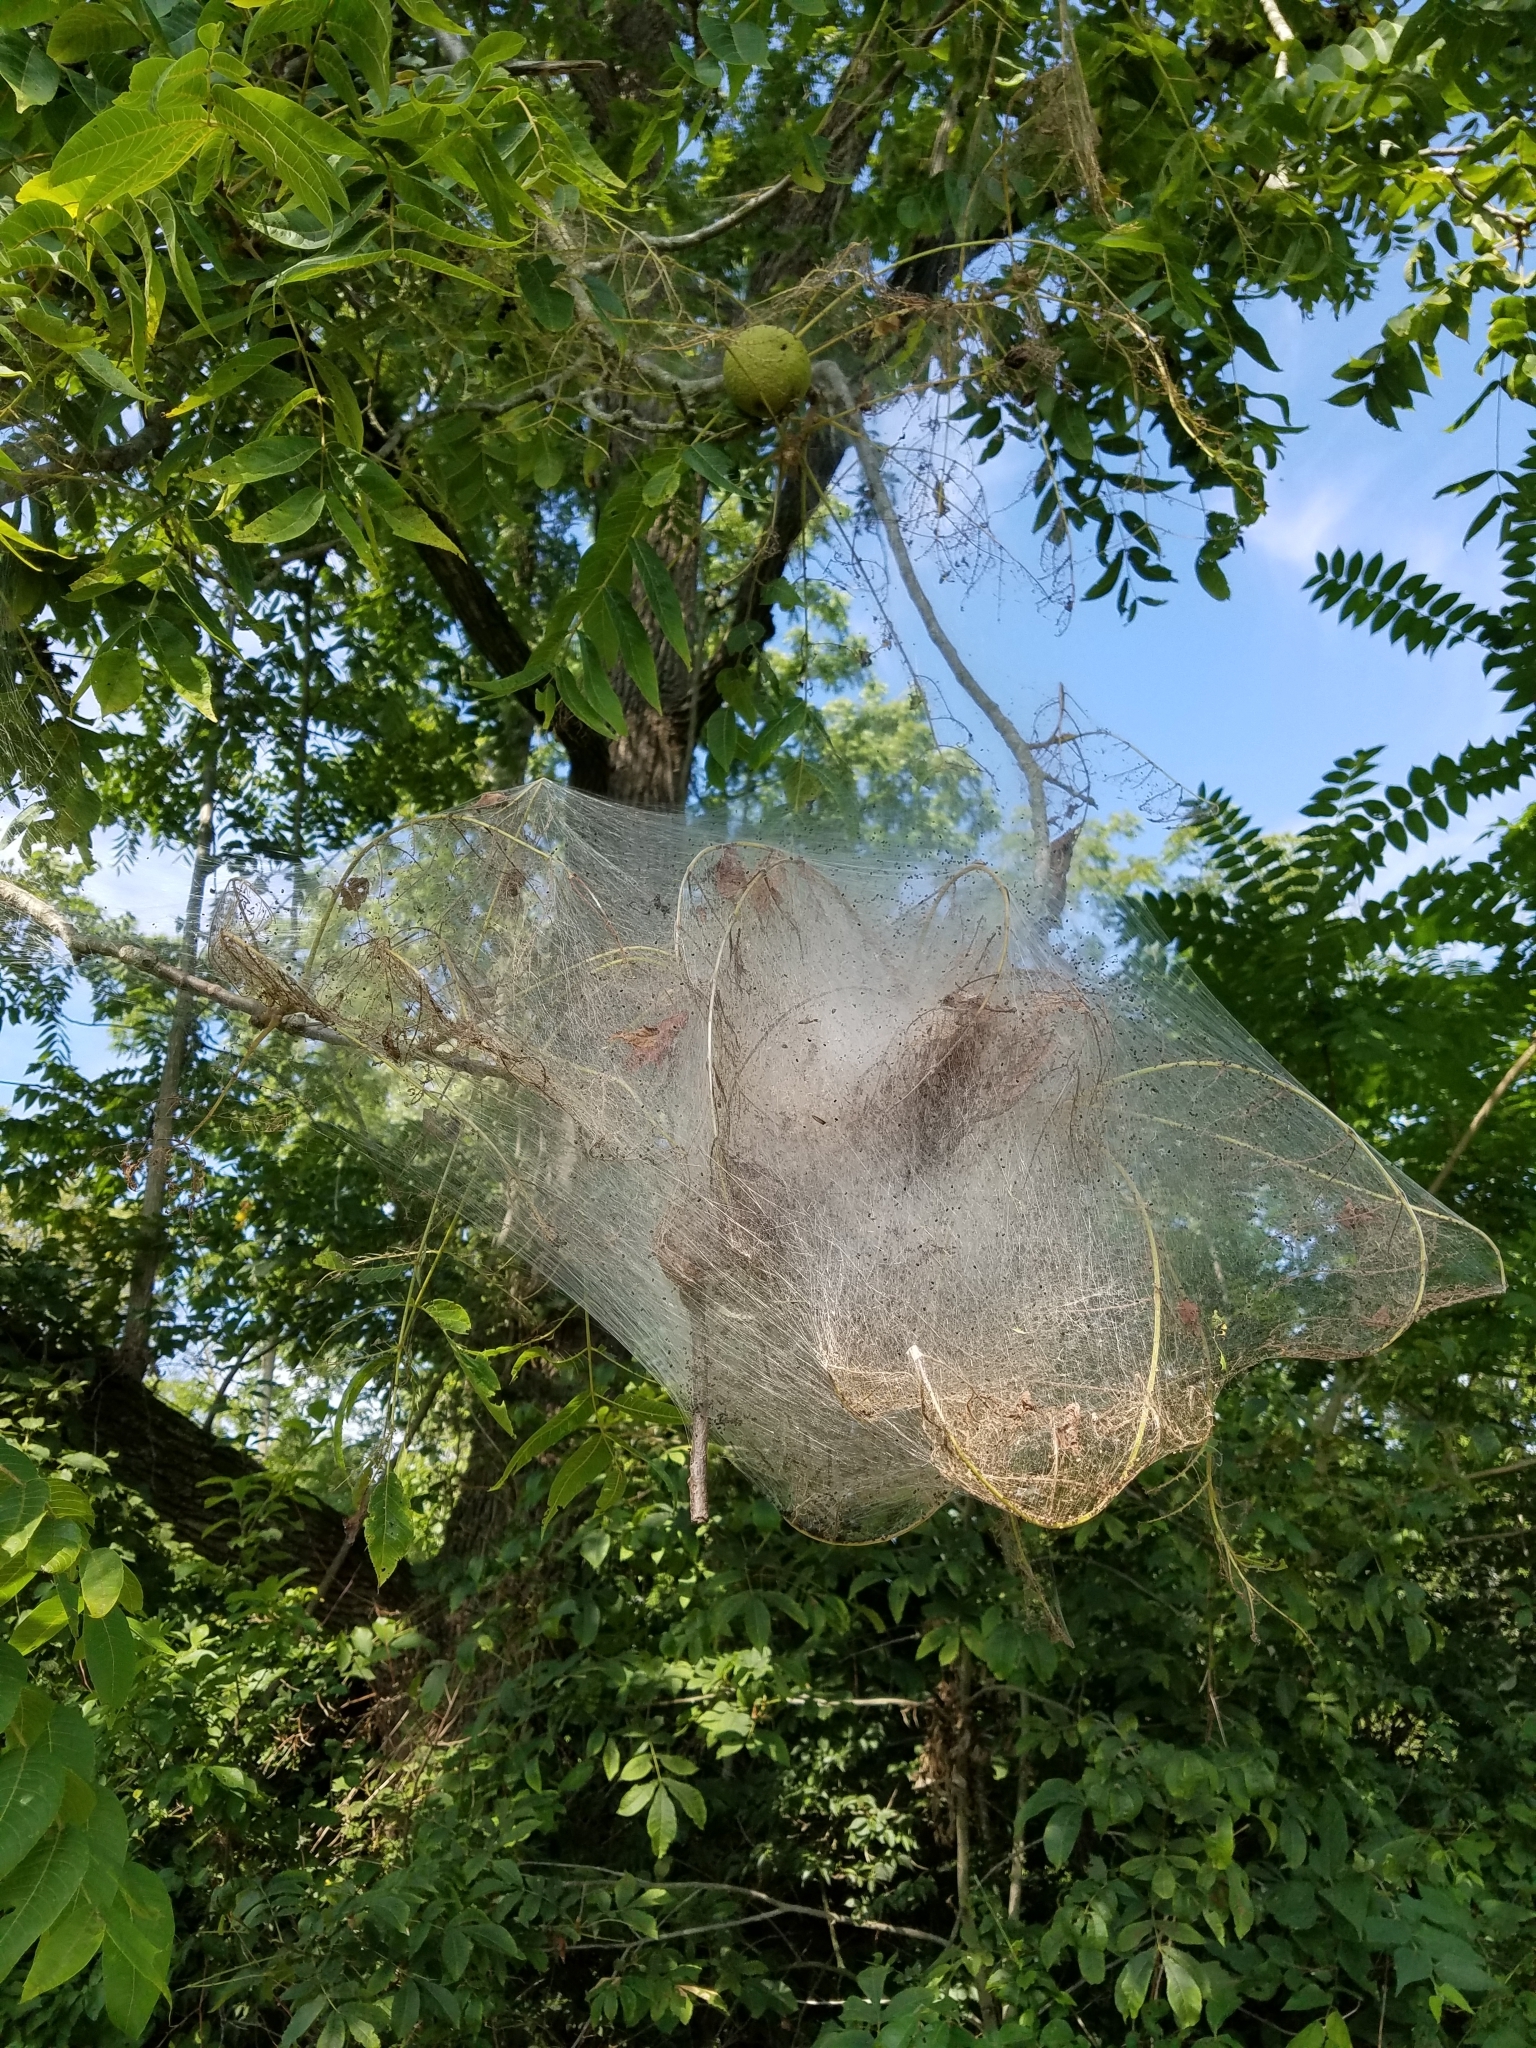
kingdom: Animalia
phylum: Arthropoda
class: Insecta
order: Lepidoptera
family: Erebidae
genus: Hyphantria
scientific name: Hyphantria cunea
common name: American white moth
